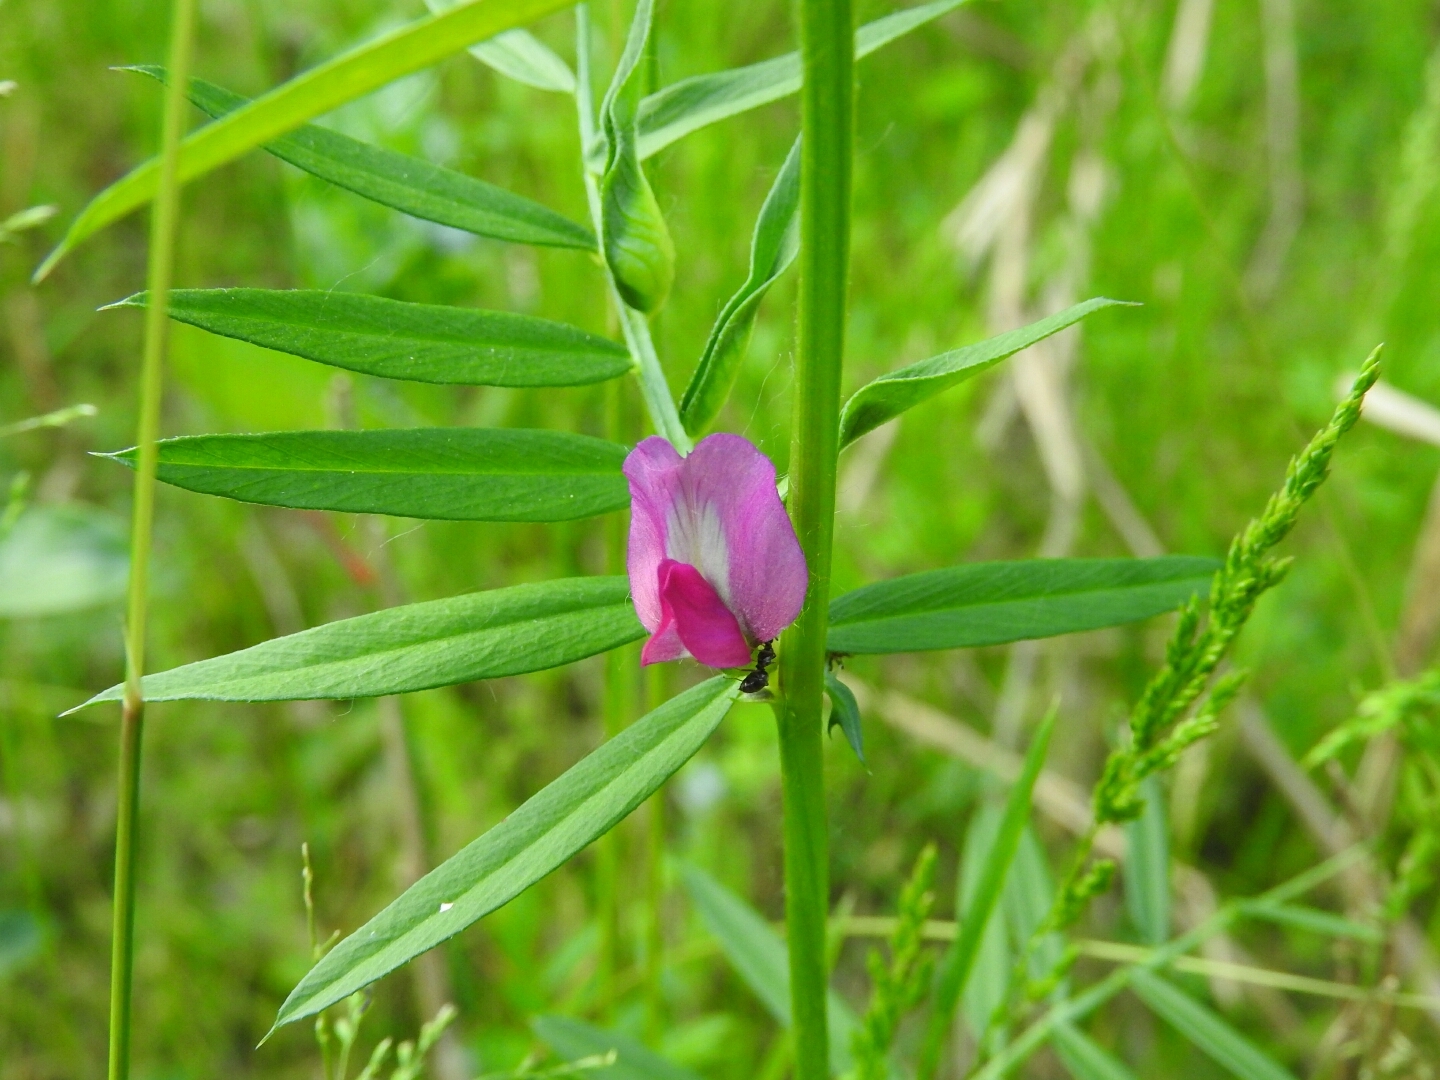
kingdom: Plantae
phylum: Tracheophyta
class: Magnoliopsida
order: Fabales
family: Fabaceae
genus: Vicia
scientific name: Vicia sativa
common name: Garden vetch
